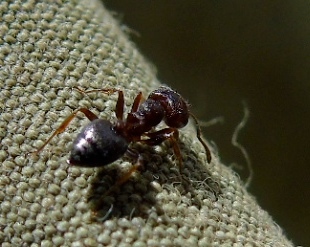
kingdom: Animalia
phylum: Arthropoda
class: Insecta
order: Hymenoptera
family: Formicidae
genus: Crematogaster
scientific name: Crematogaster
